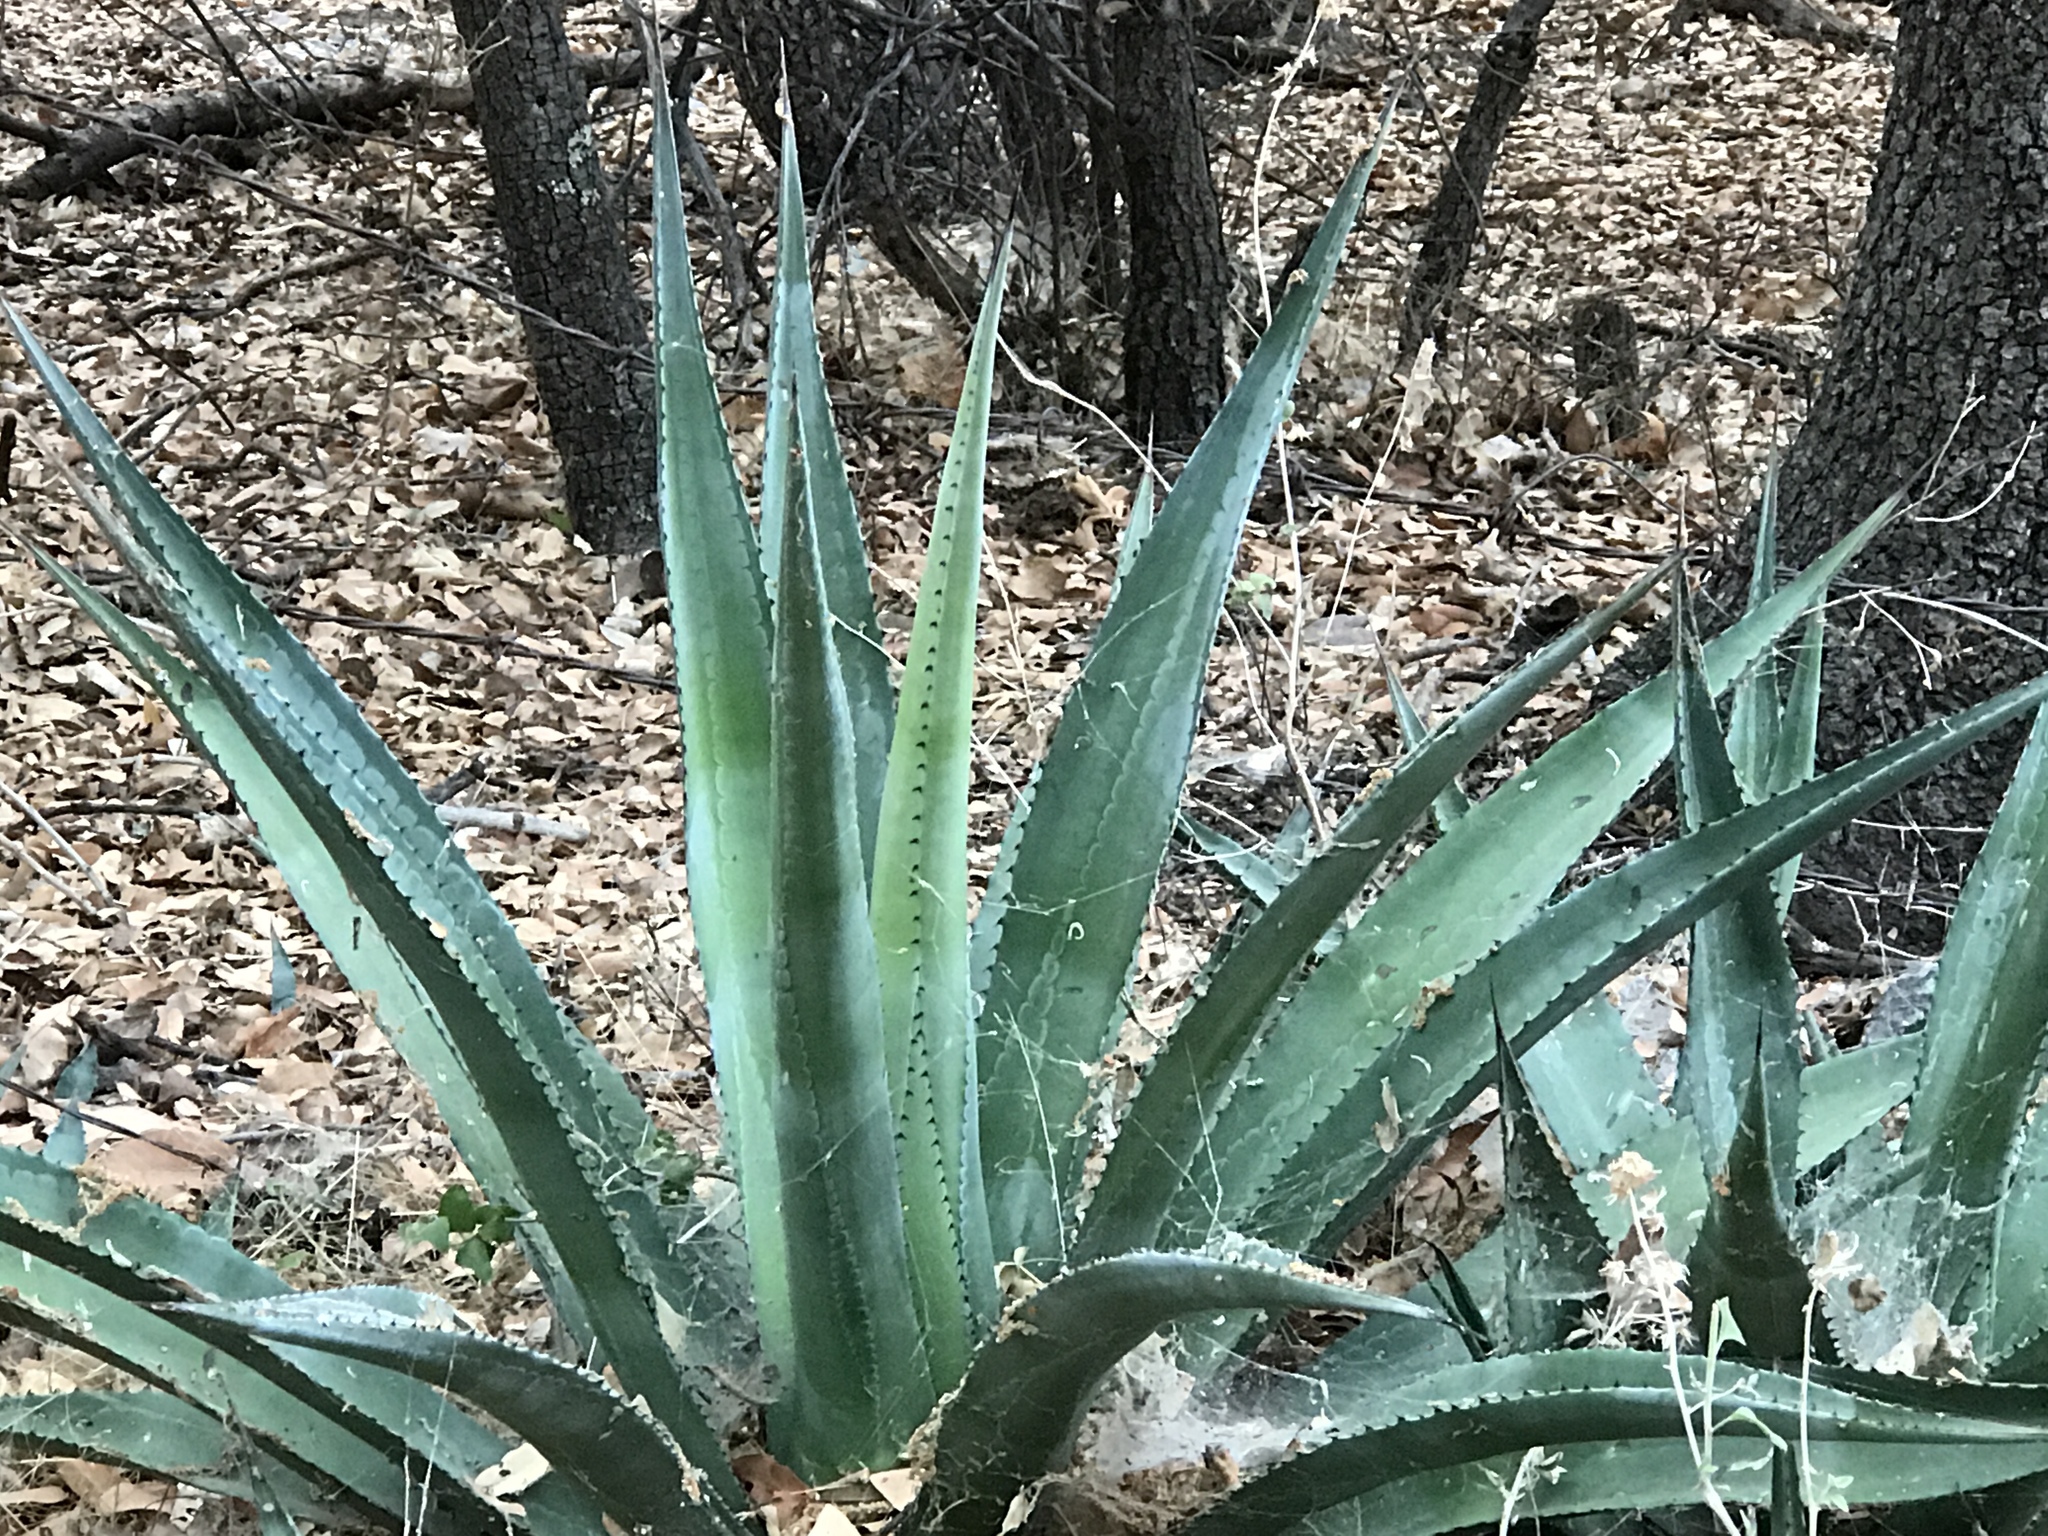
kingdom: Plantae
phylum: Tracheophyta
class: Liliopsida
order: Asparagales
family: Asparagaceae
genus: Agave
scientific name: Agave palmeri
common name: Palmer agave
